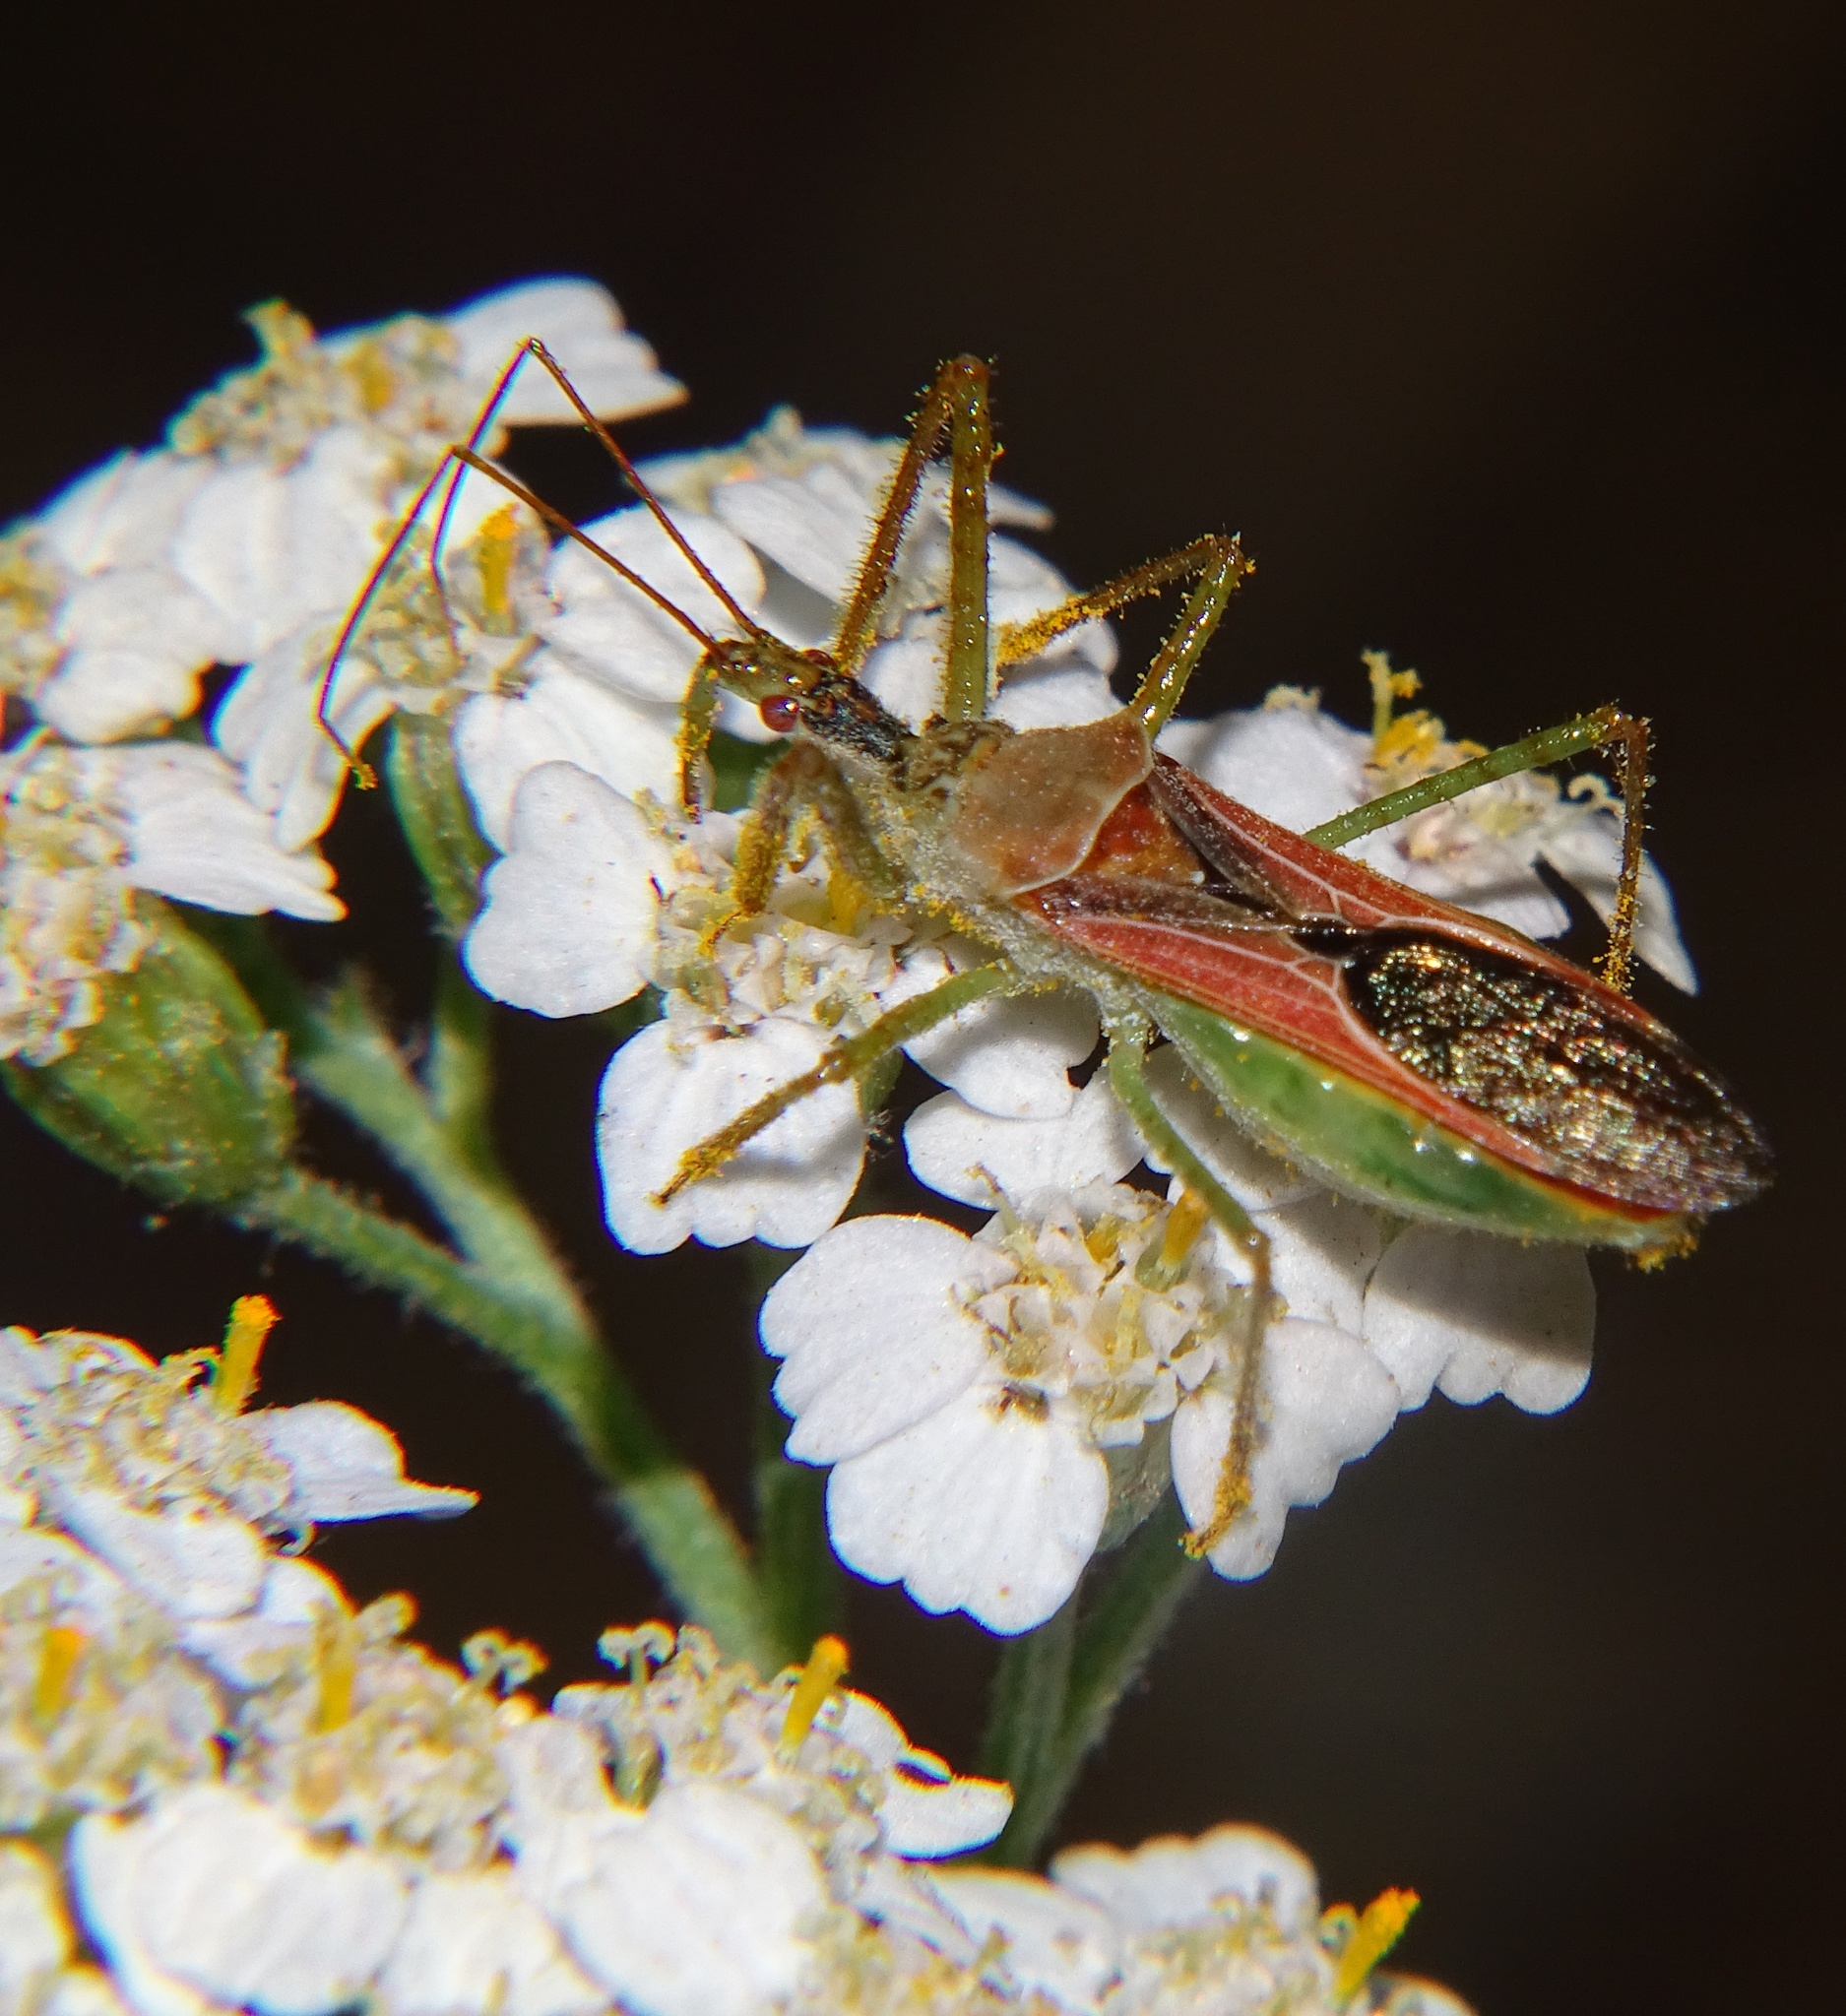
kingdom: Animalia
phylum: Arthropoda
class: Insecta
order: Hemiptera
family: Reduviidae
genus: Zelus
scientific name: Zelus renardii
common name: Assassin bug
